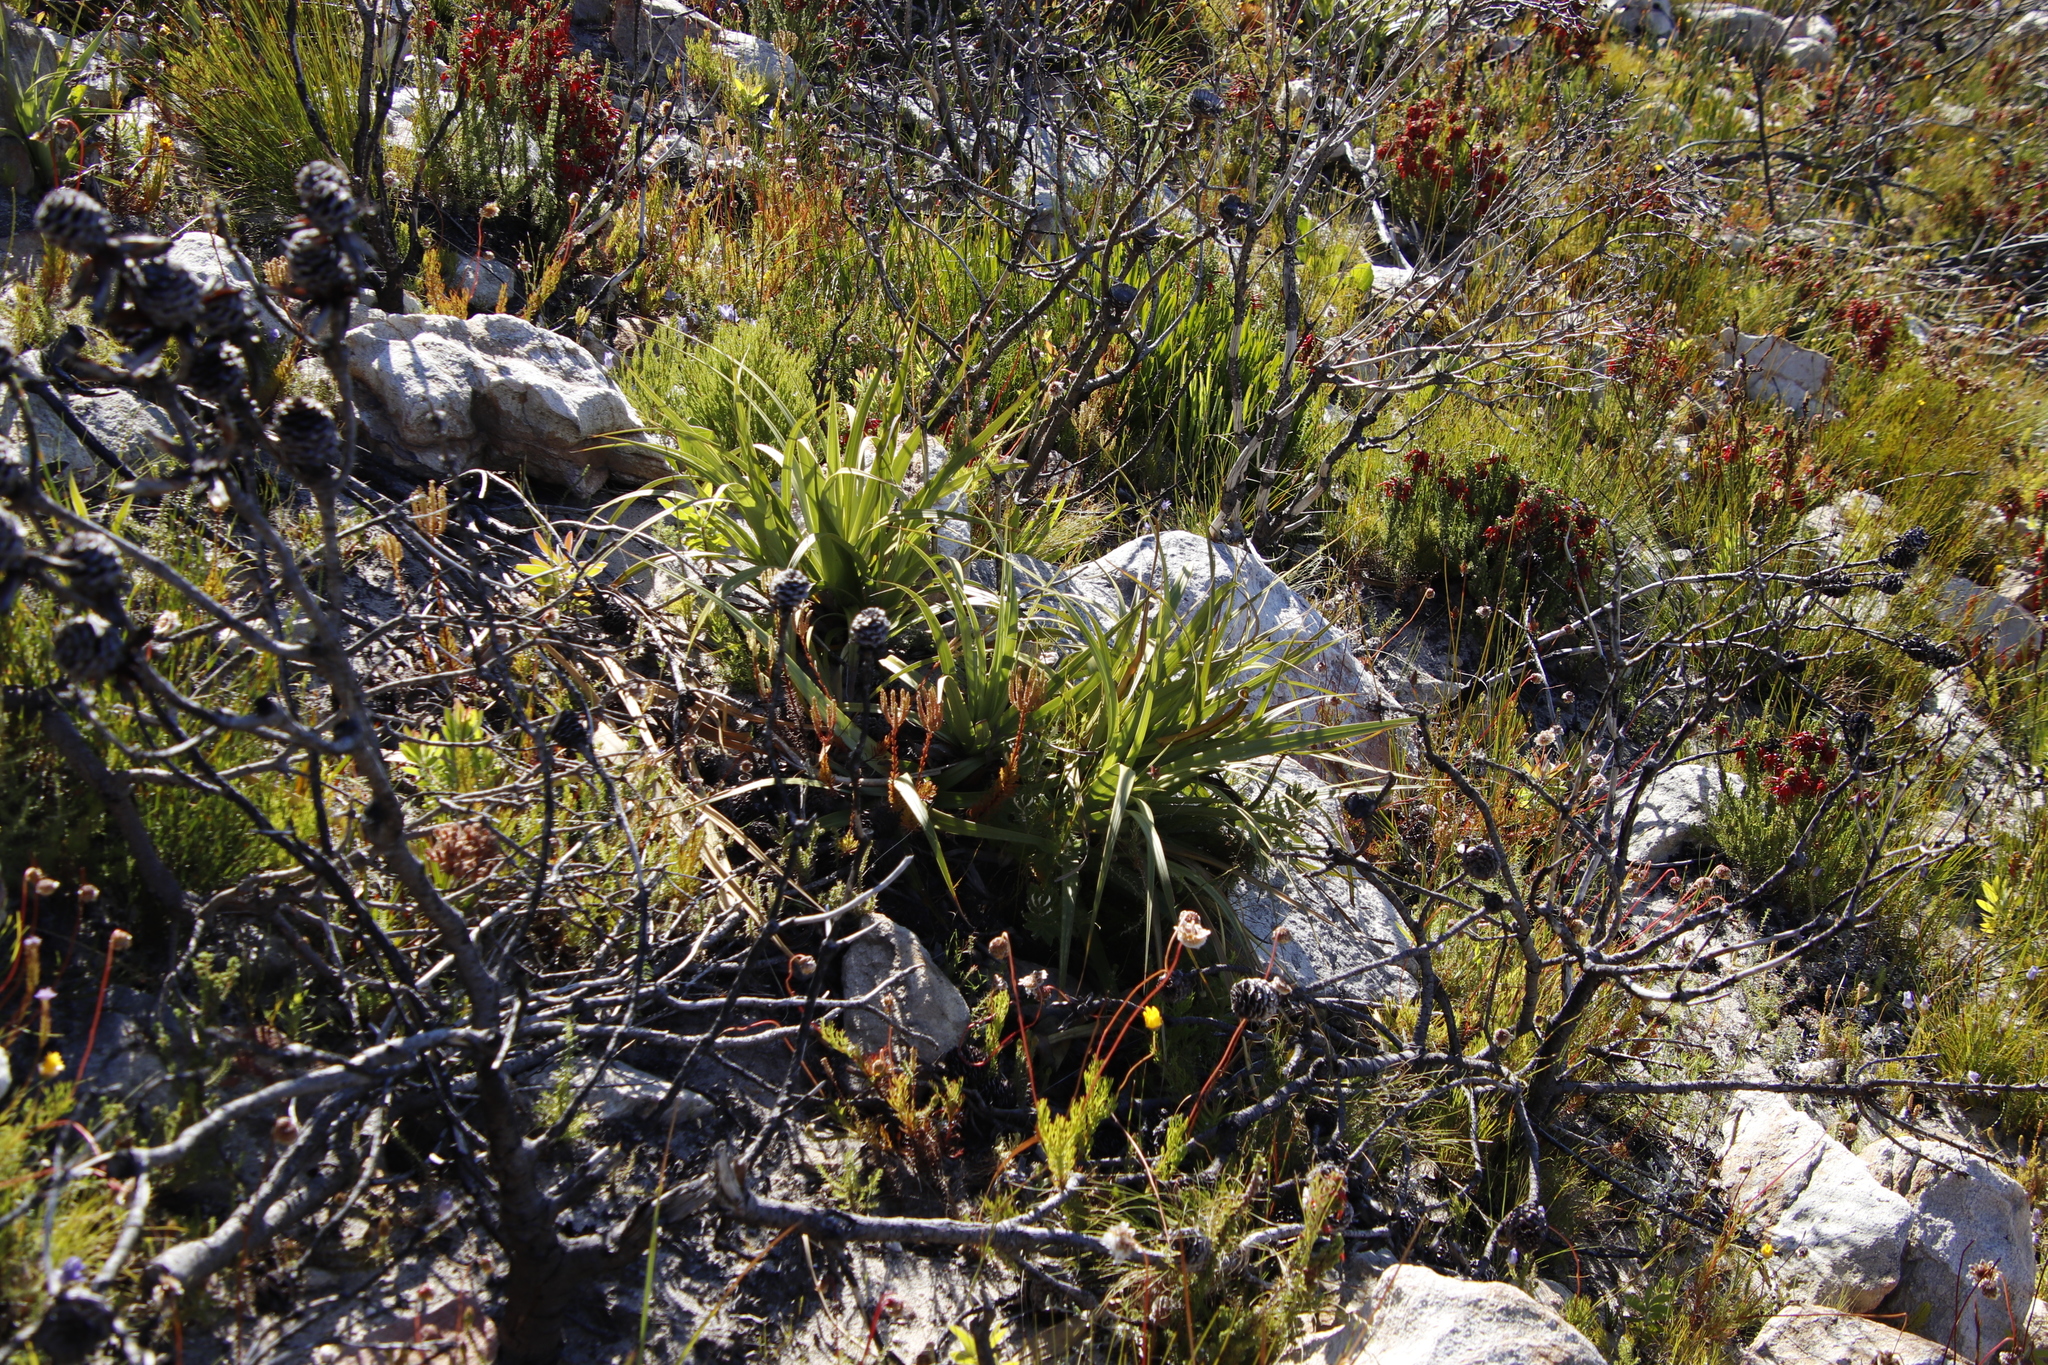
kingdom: Plantae
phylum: Tracheophyta
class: Liliopsida
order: Poales
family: Cyperaceae
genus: Tetraria
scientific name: Tetraria thermalis
